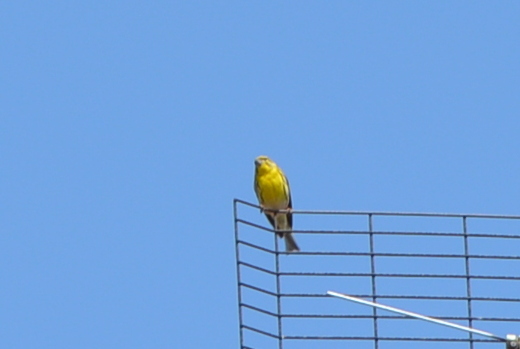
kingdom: Animalia
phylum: Chordata
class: Aves
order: Passeriformes
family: Fringillidae
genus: Serinus
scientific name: Serinus serinus
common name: European serin
